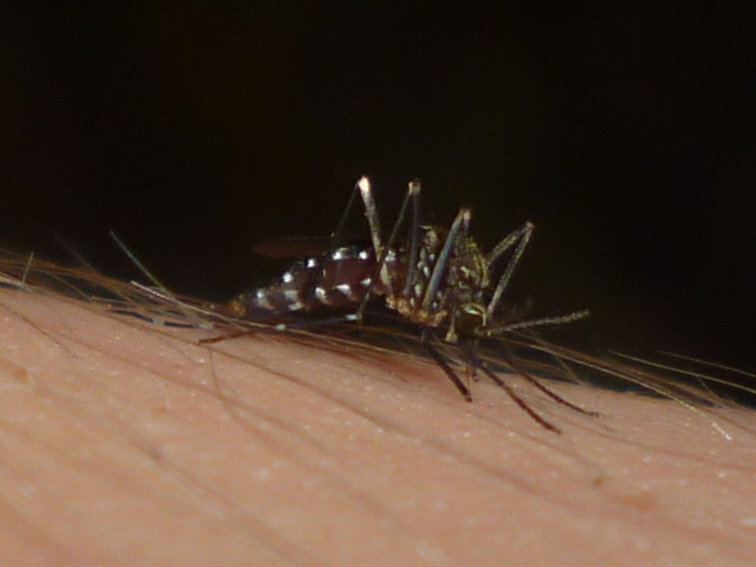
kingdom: Animalia
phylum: Arthropoda
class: Insecta
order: Diptera
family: Culicidae
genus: Aedes
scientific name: Aedes japonicus
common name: Asian bush mosquito
